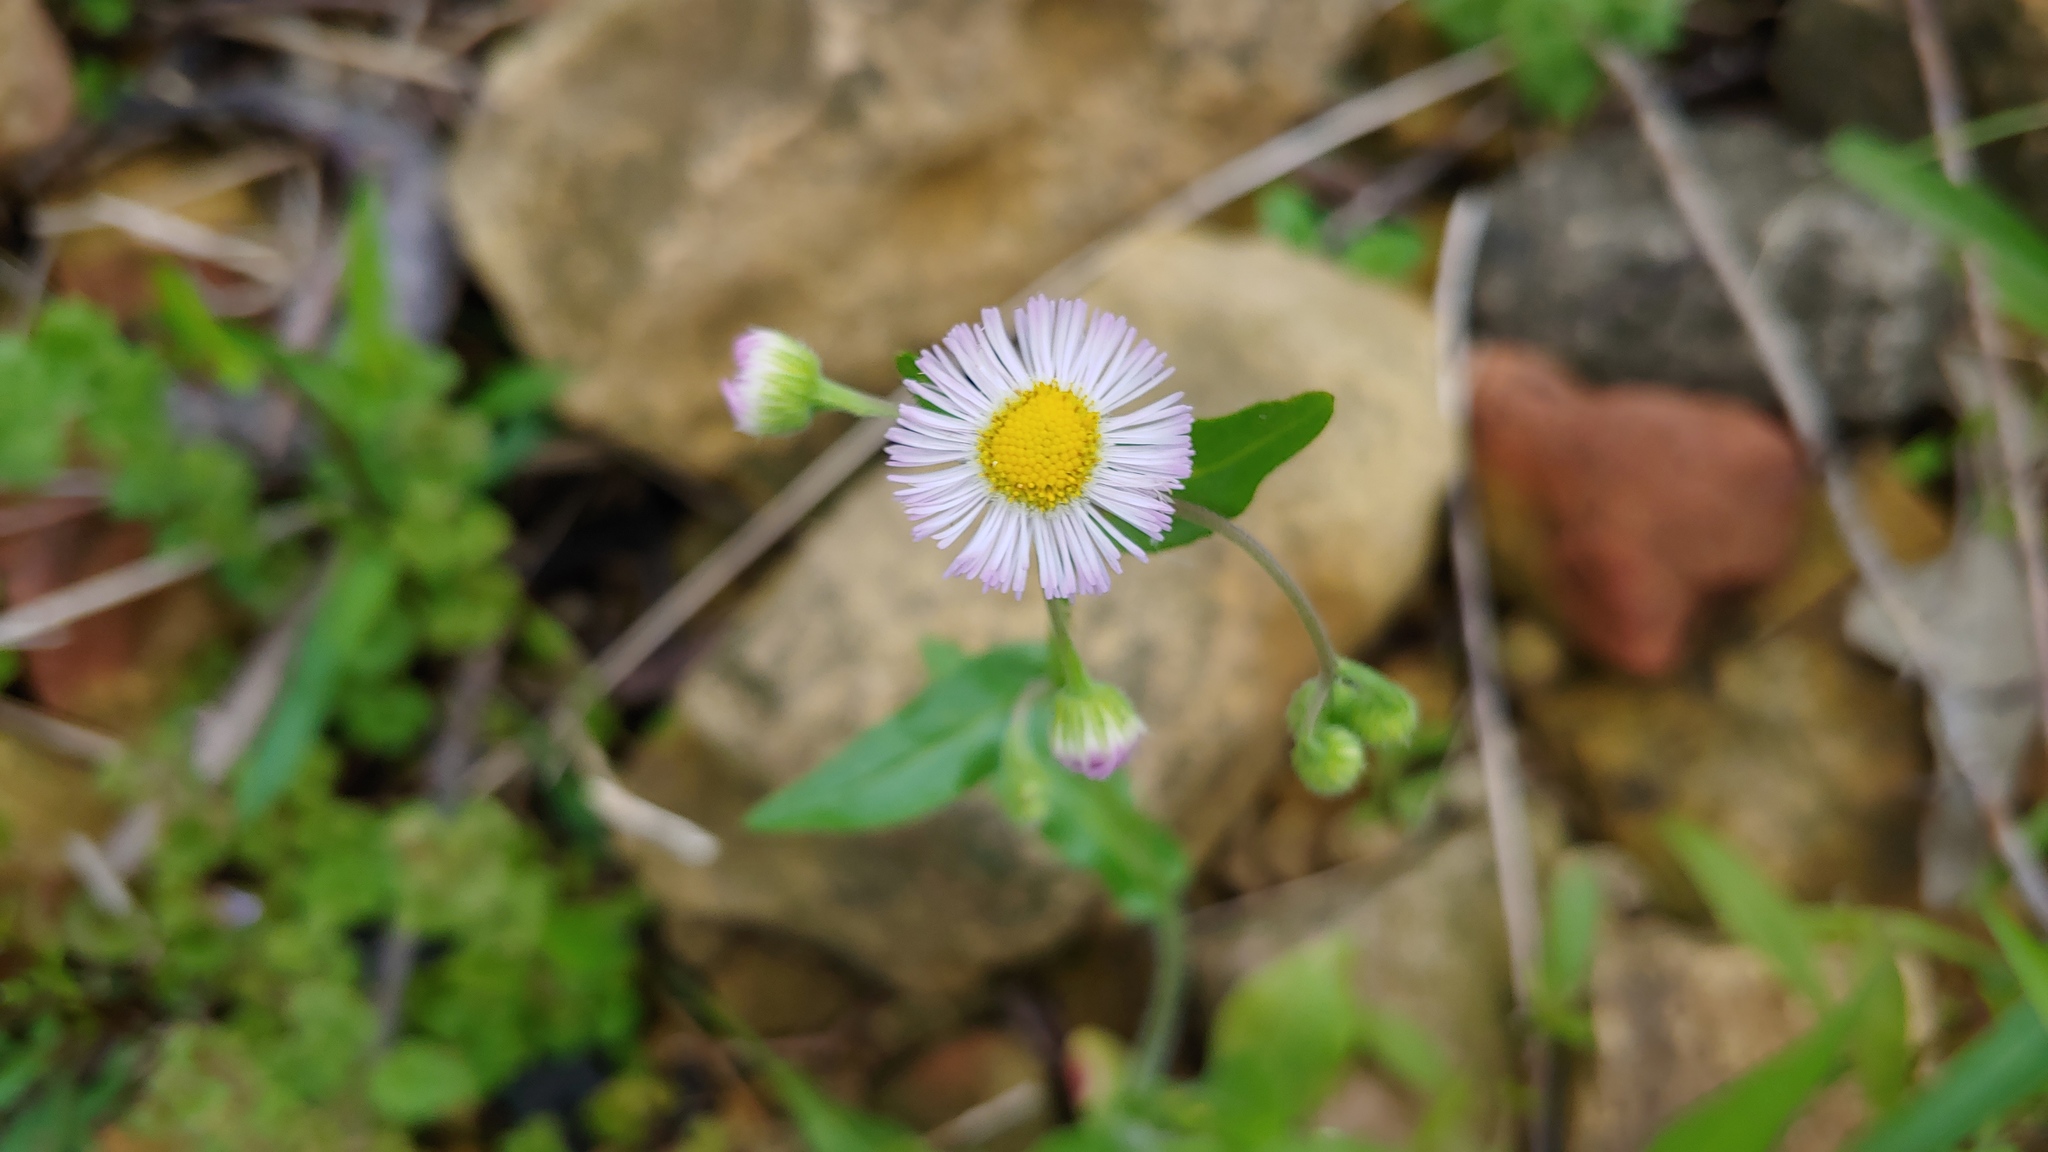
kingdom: Plantae
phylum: Tracheophyta
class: Magnoliopsida
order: Asterales
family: Asteraceae
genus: Erigeron
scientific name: Erigeron philadelphicus
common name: Robin's-plantain
